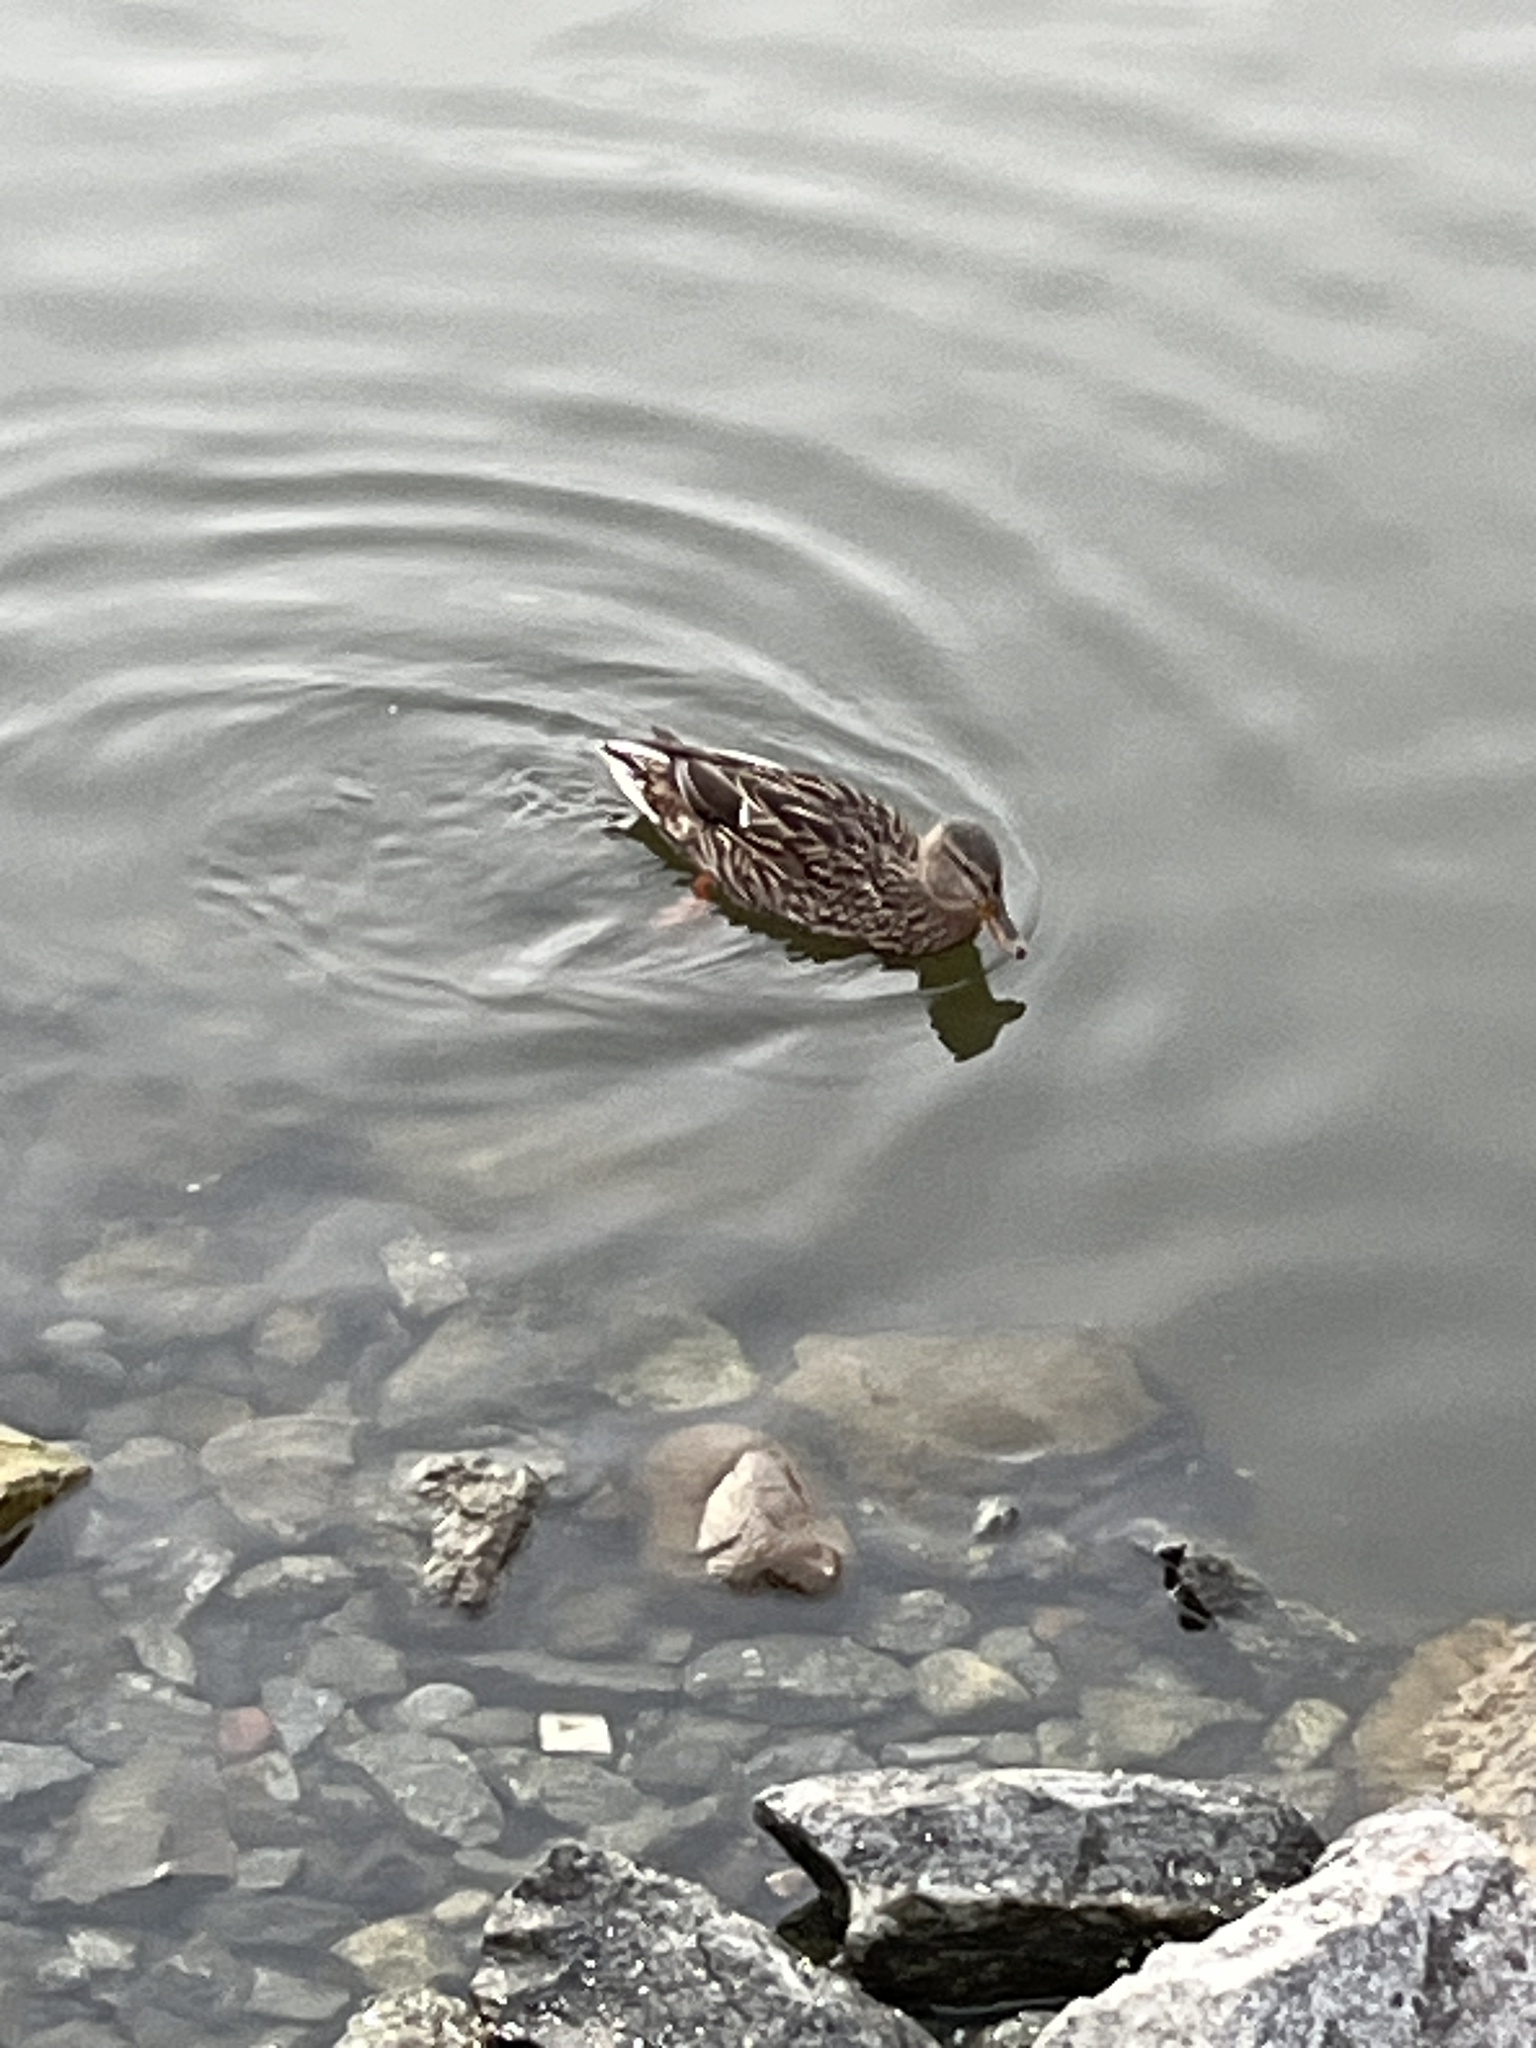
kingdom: Animalia
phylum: Chordata
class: Aves
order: Anseriformes
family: Anatidae
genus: Anas
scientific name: Anas platyrhynchos
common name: Mallard
